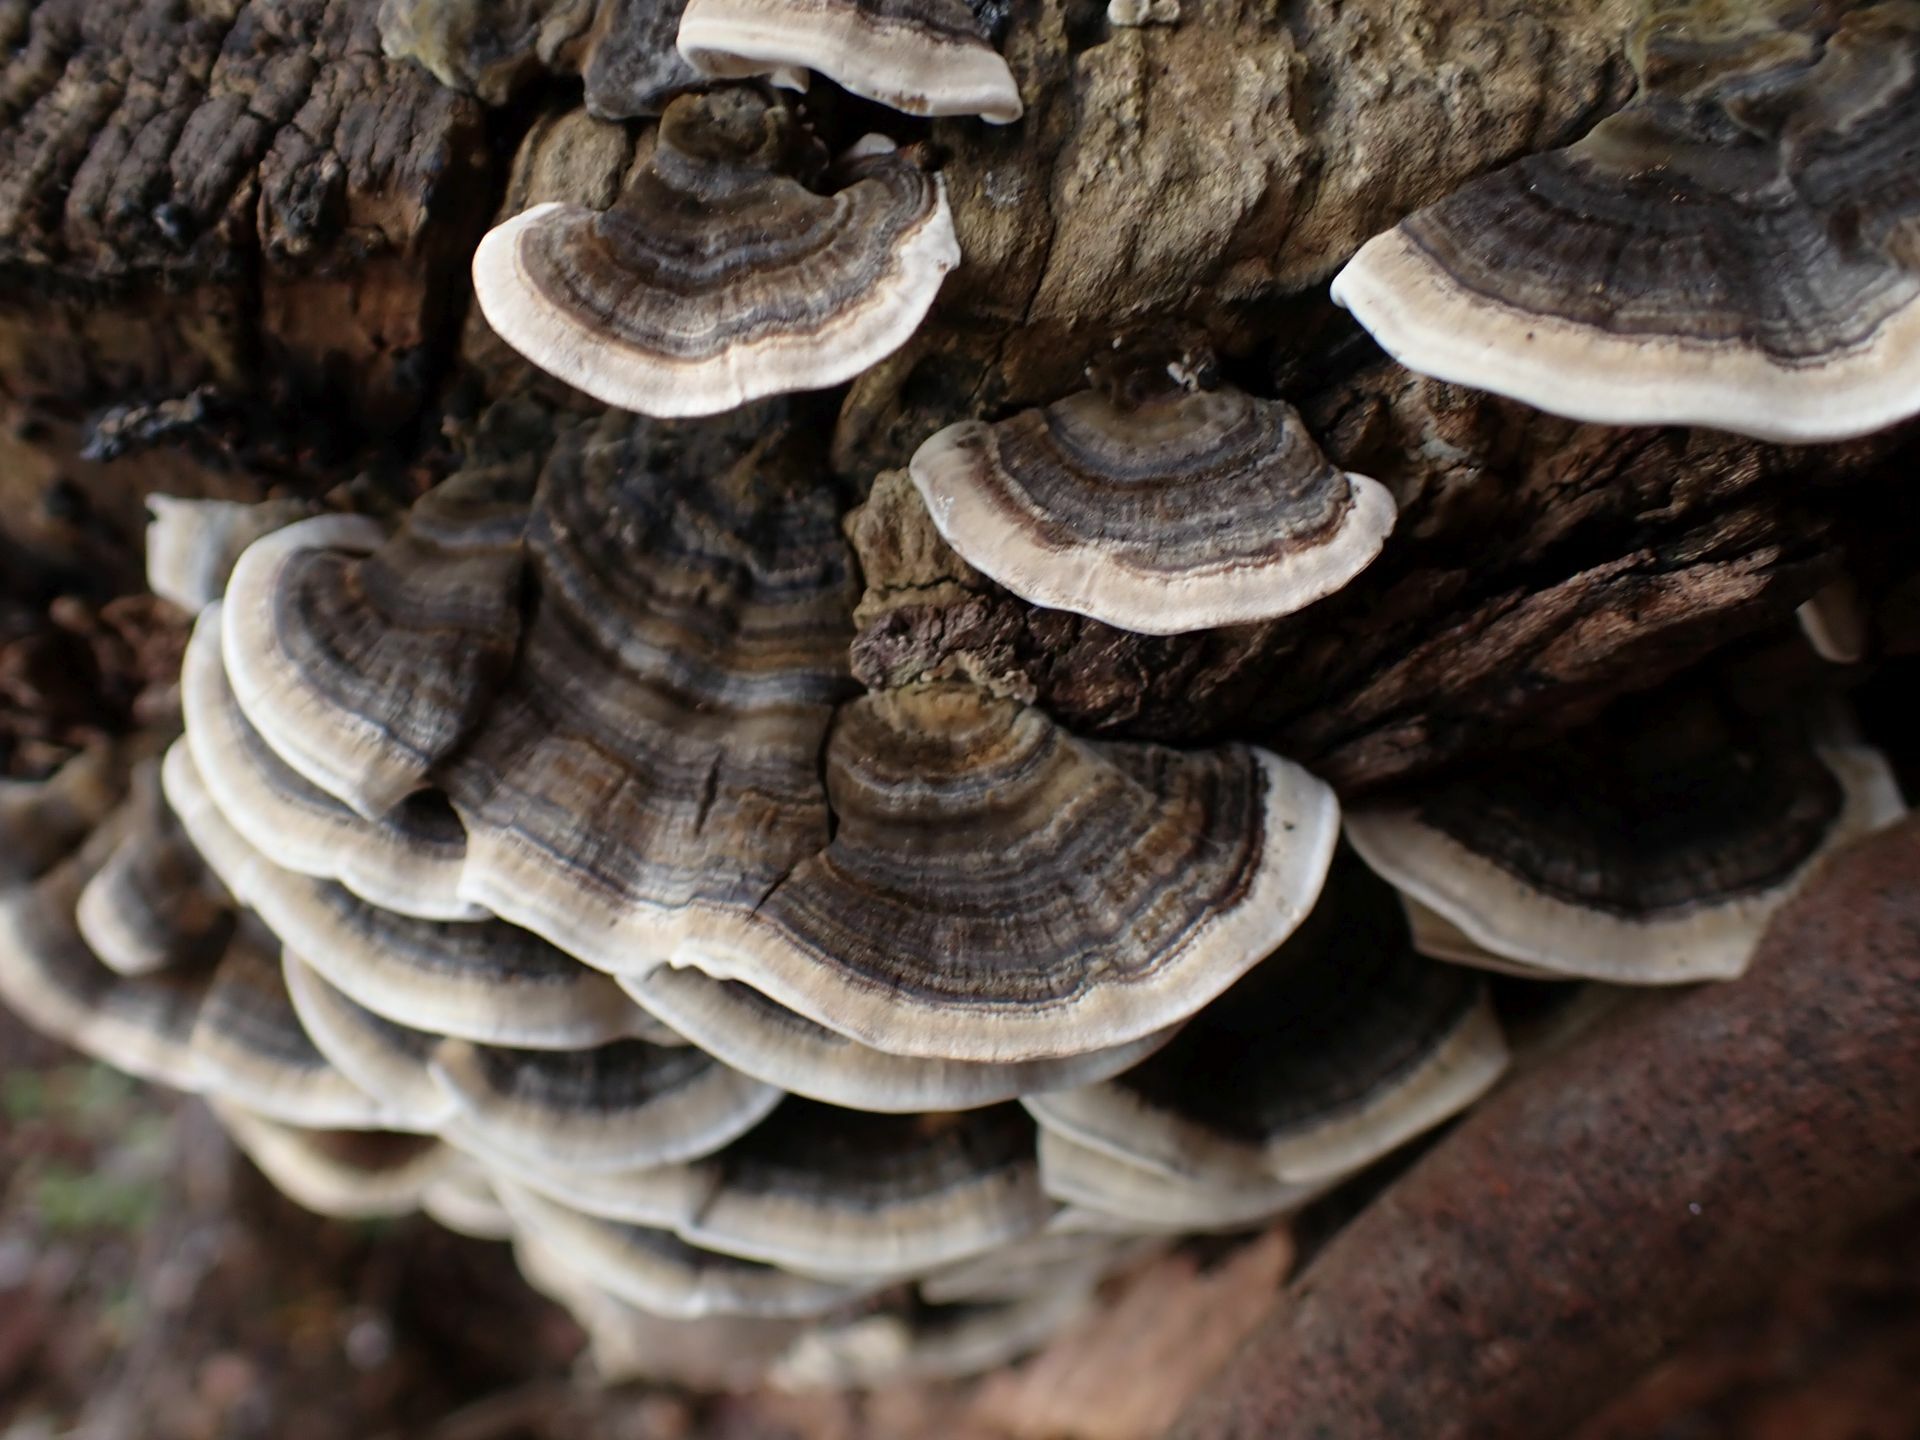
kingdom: Fungi
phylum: Basidiomycota
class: Agaricomycetes
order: Polyporales
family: Polyporaceae
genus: Trametes
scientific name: Trametes versicolor
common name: Turkeytail
